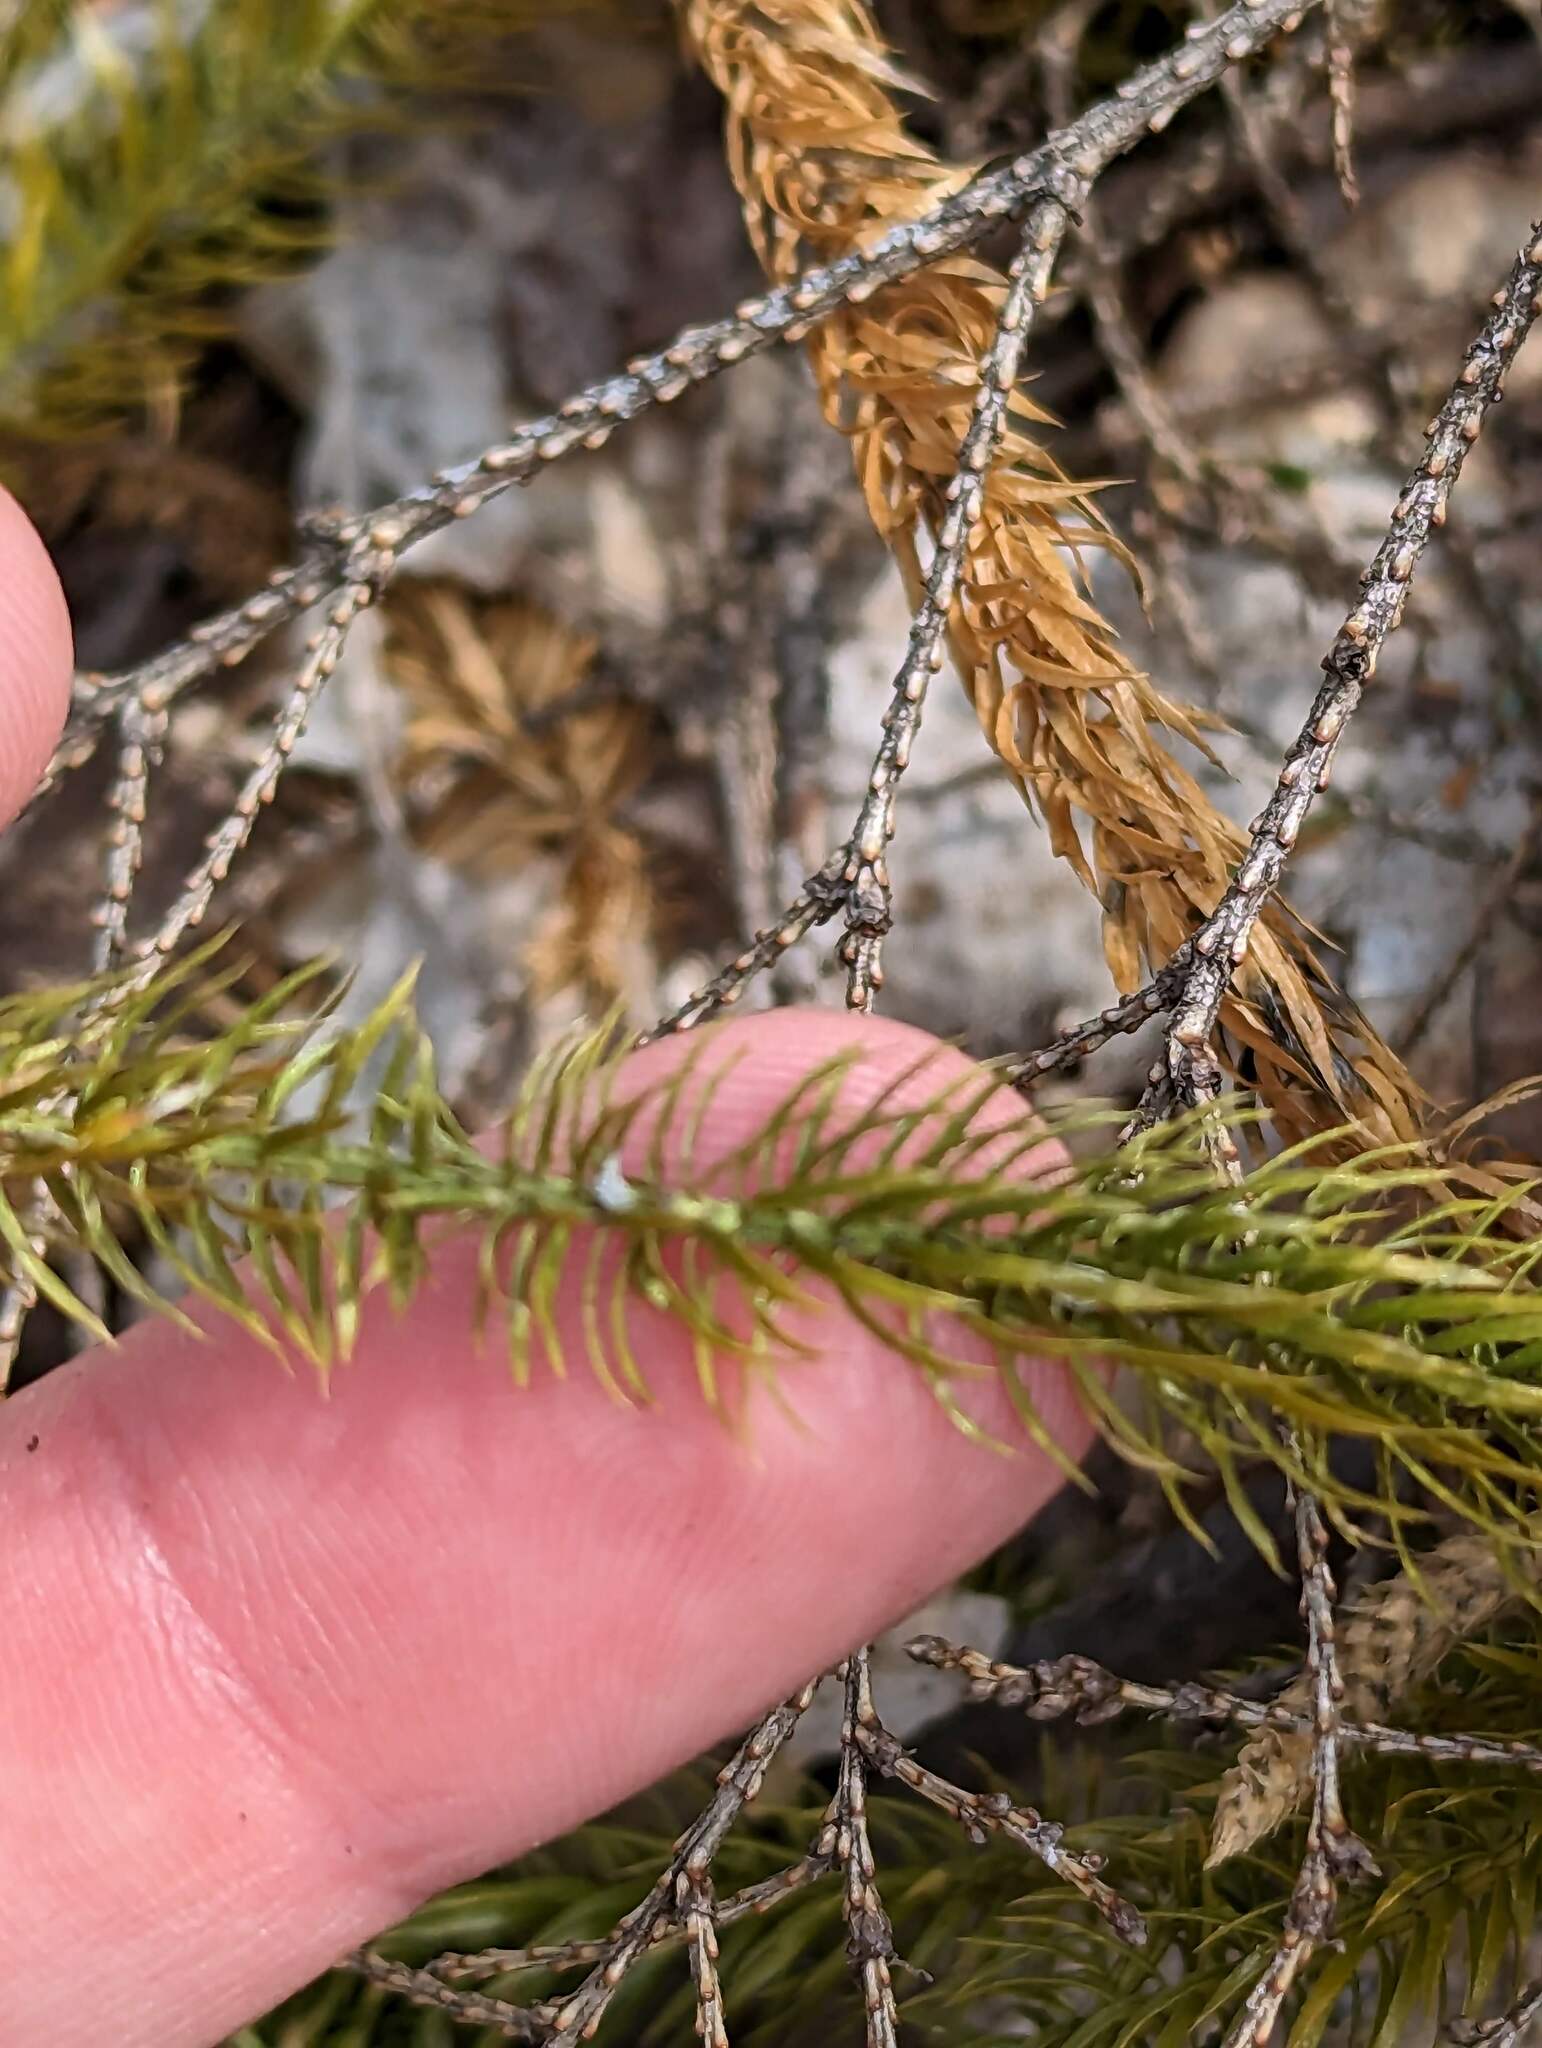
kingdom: Plantae
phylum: Tracheophyta
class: Lycopodiopsida
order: Lycopodiales
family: Lycopodiaceae
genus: Spinulum
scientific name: Spinulum annotinum
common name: Interrupted club-moss
